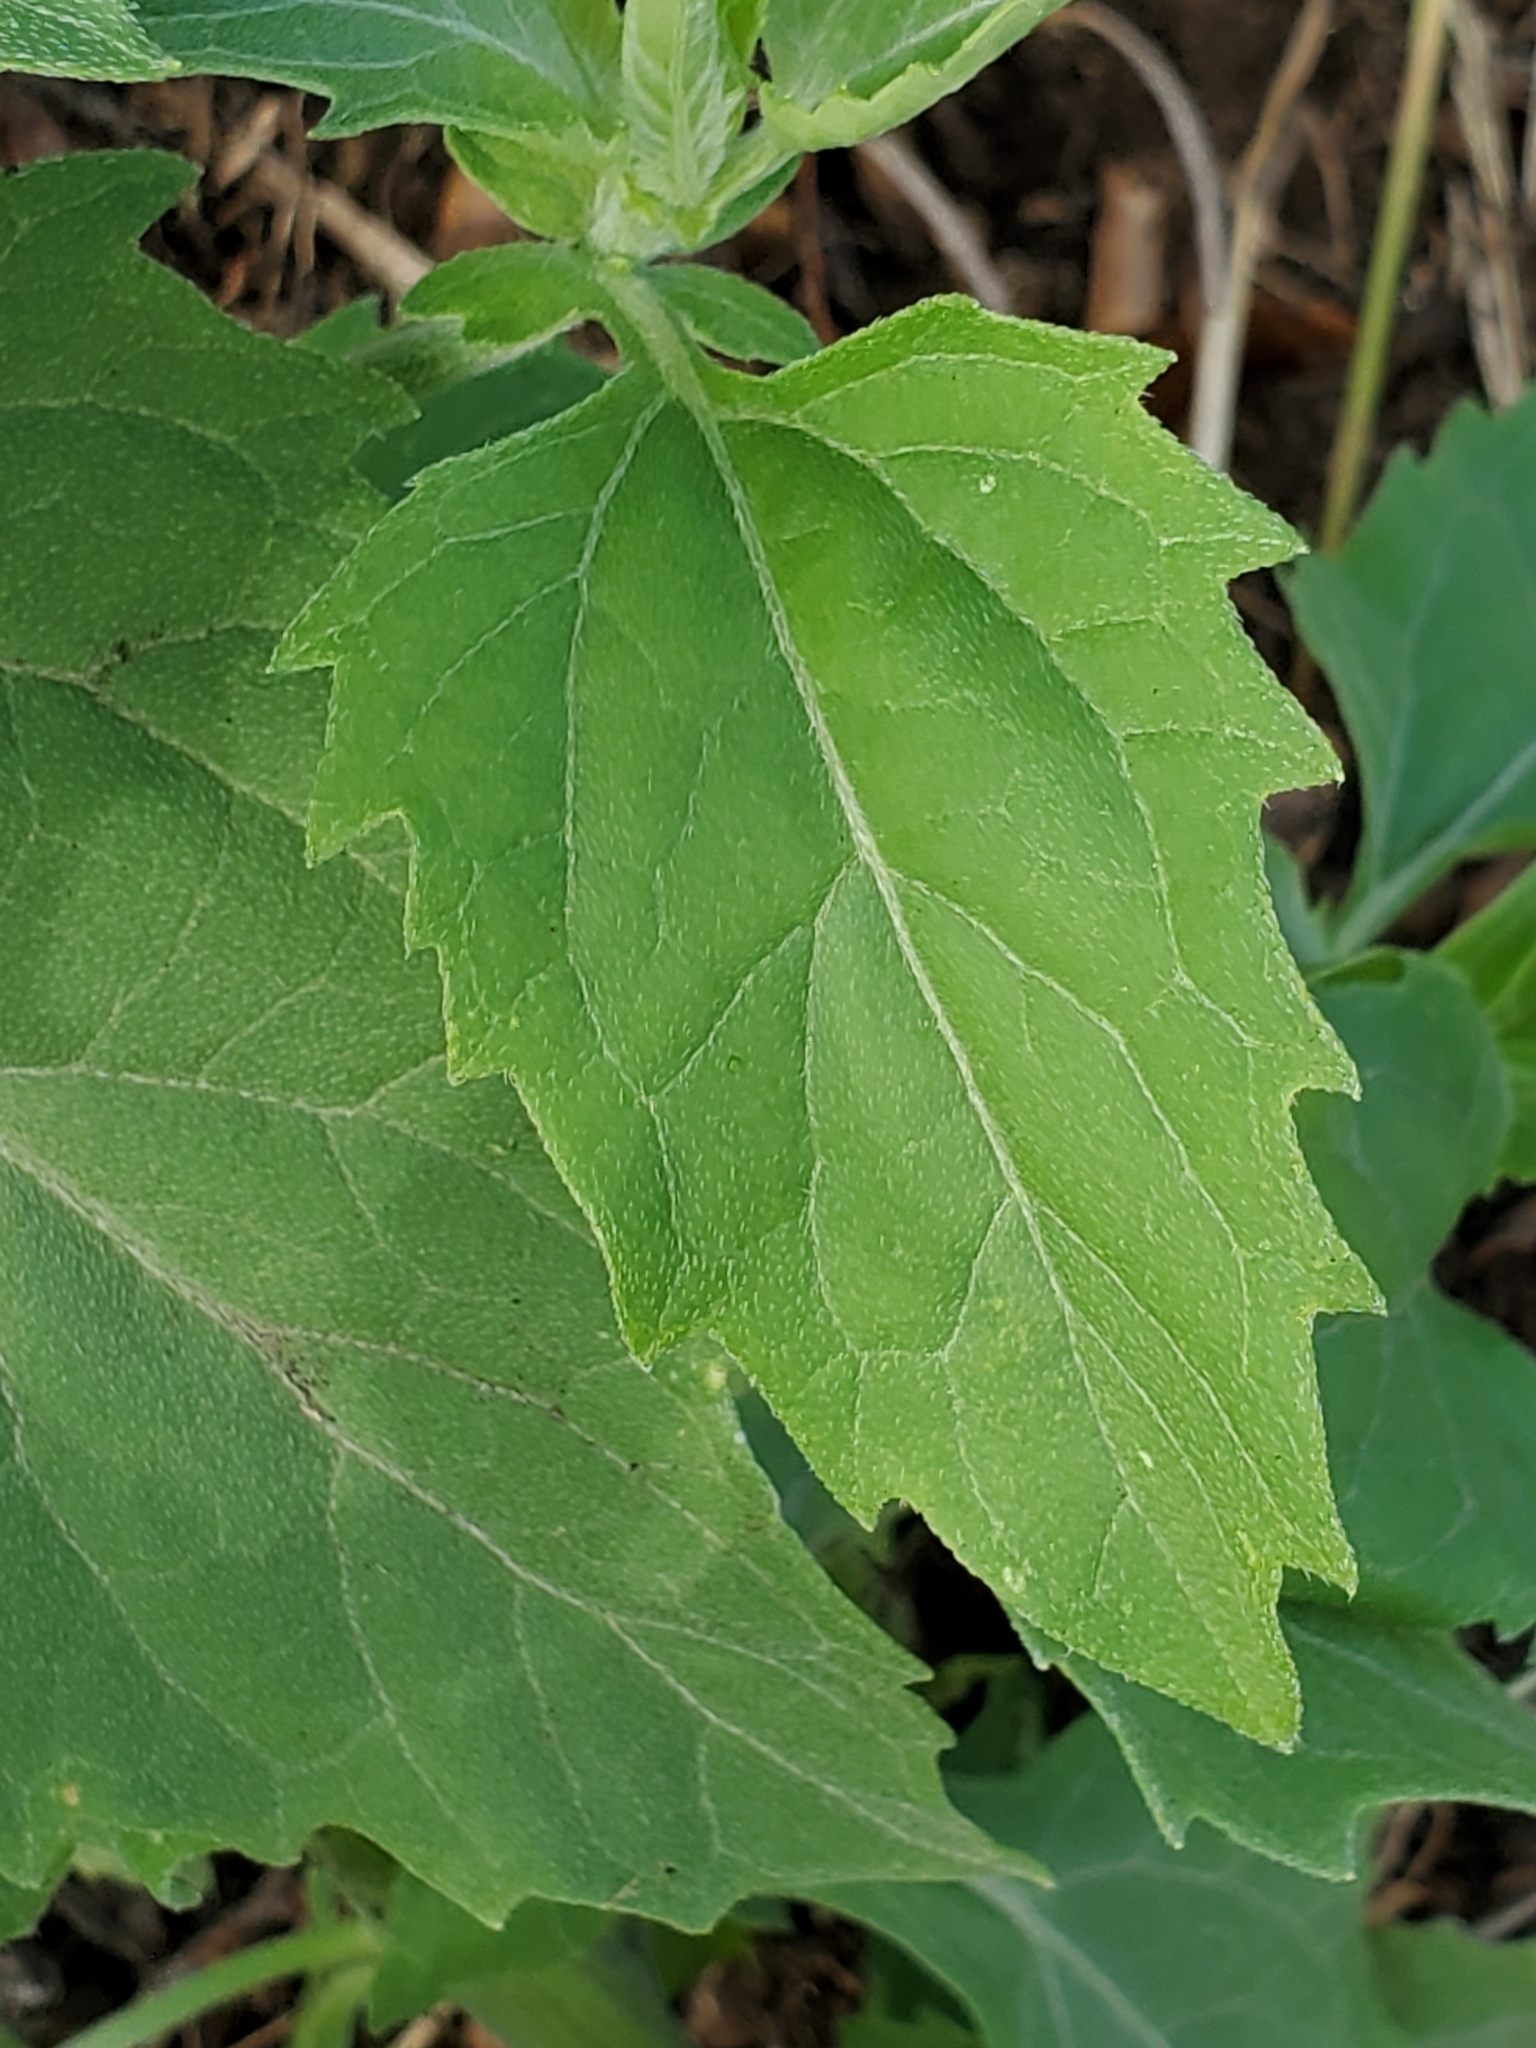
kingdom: Plantae
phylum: Tracheophyta
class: Magnoliopsida
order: Asterales
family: Asteraceae
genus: Verbesina
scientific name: Verbesina encelioides
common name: Golden crownbeard
